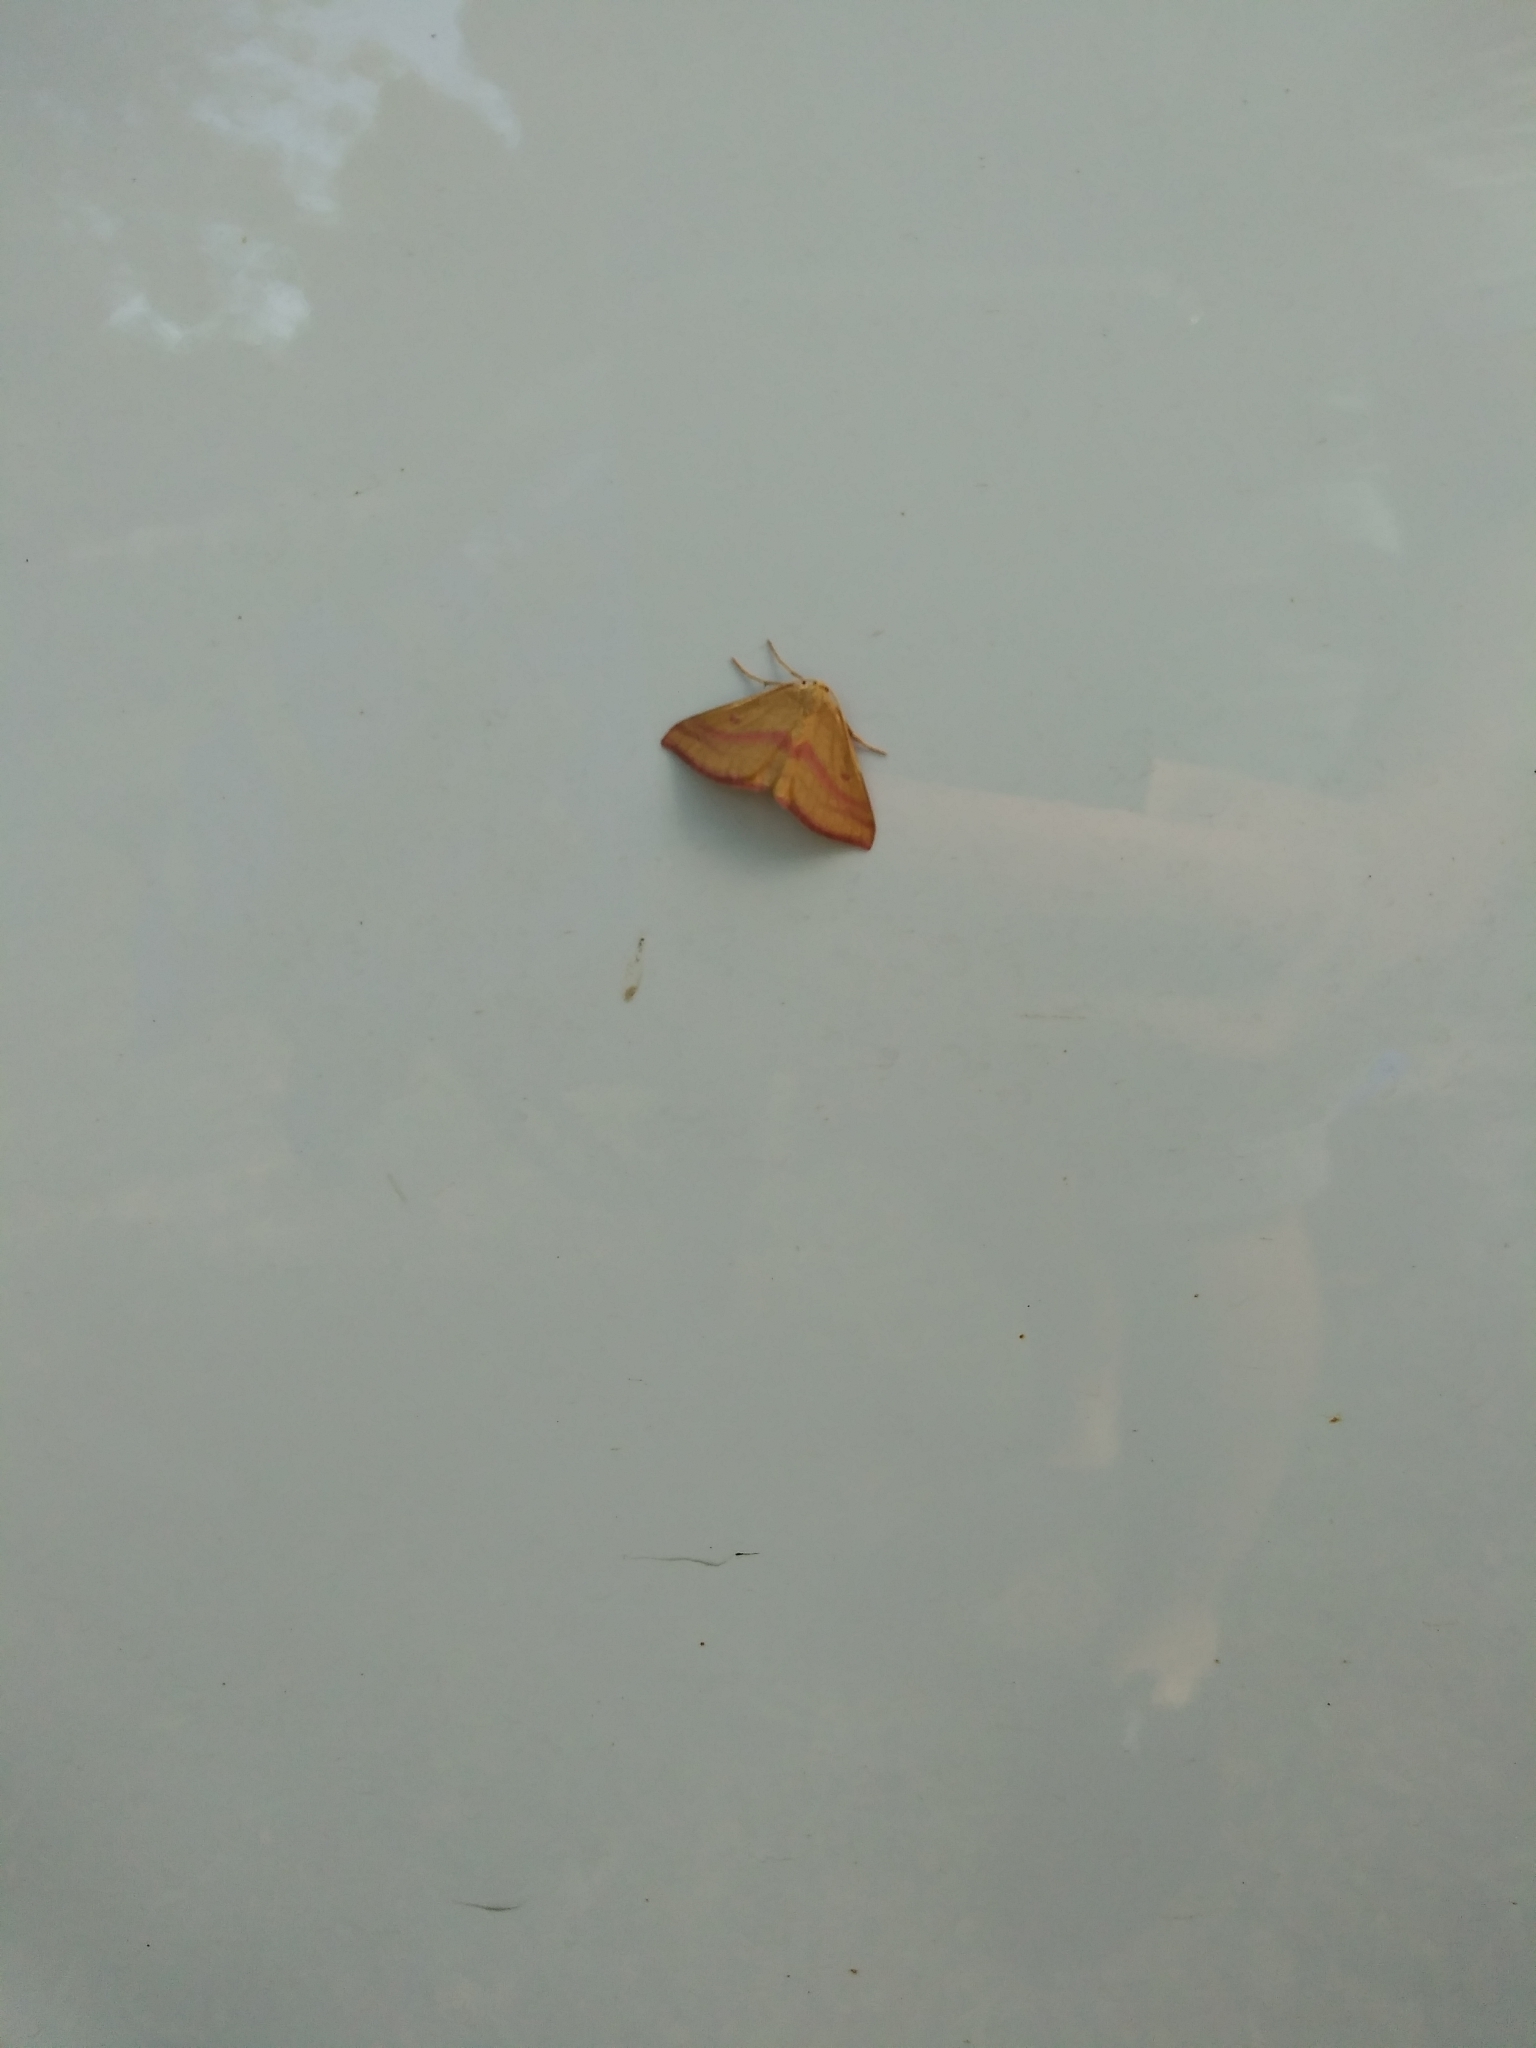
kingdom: Animalia
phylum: Arthropoda
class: Insecta
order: Lepidoptera
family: Geometridae
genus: Haematopis
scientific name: Haematopis grataria
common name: Chickweed geometer
